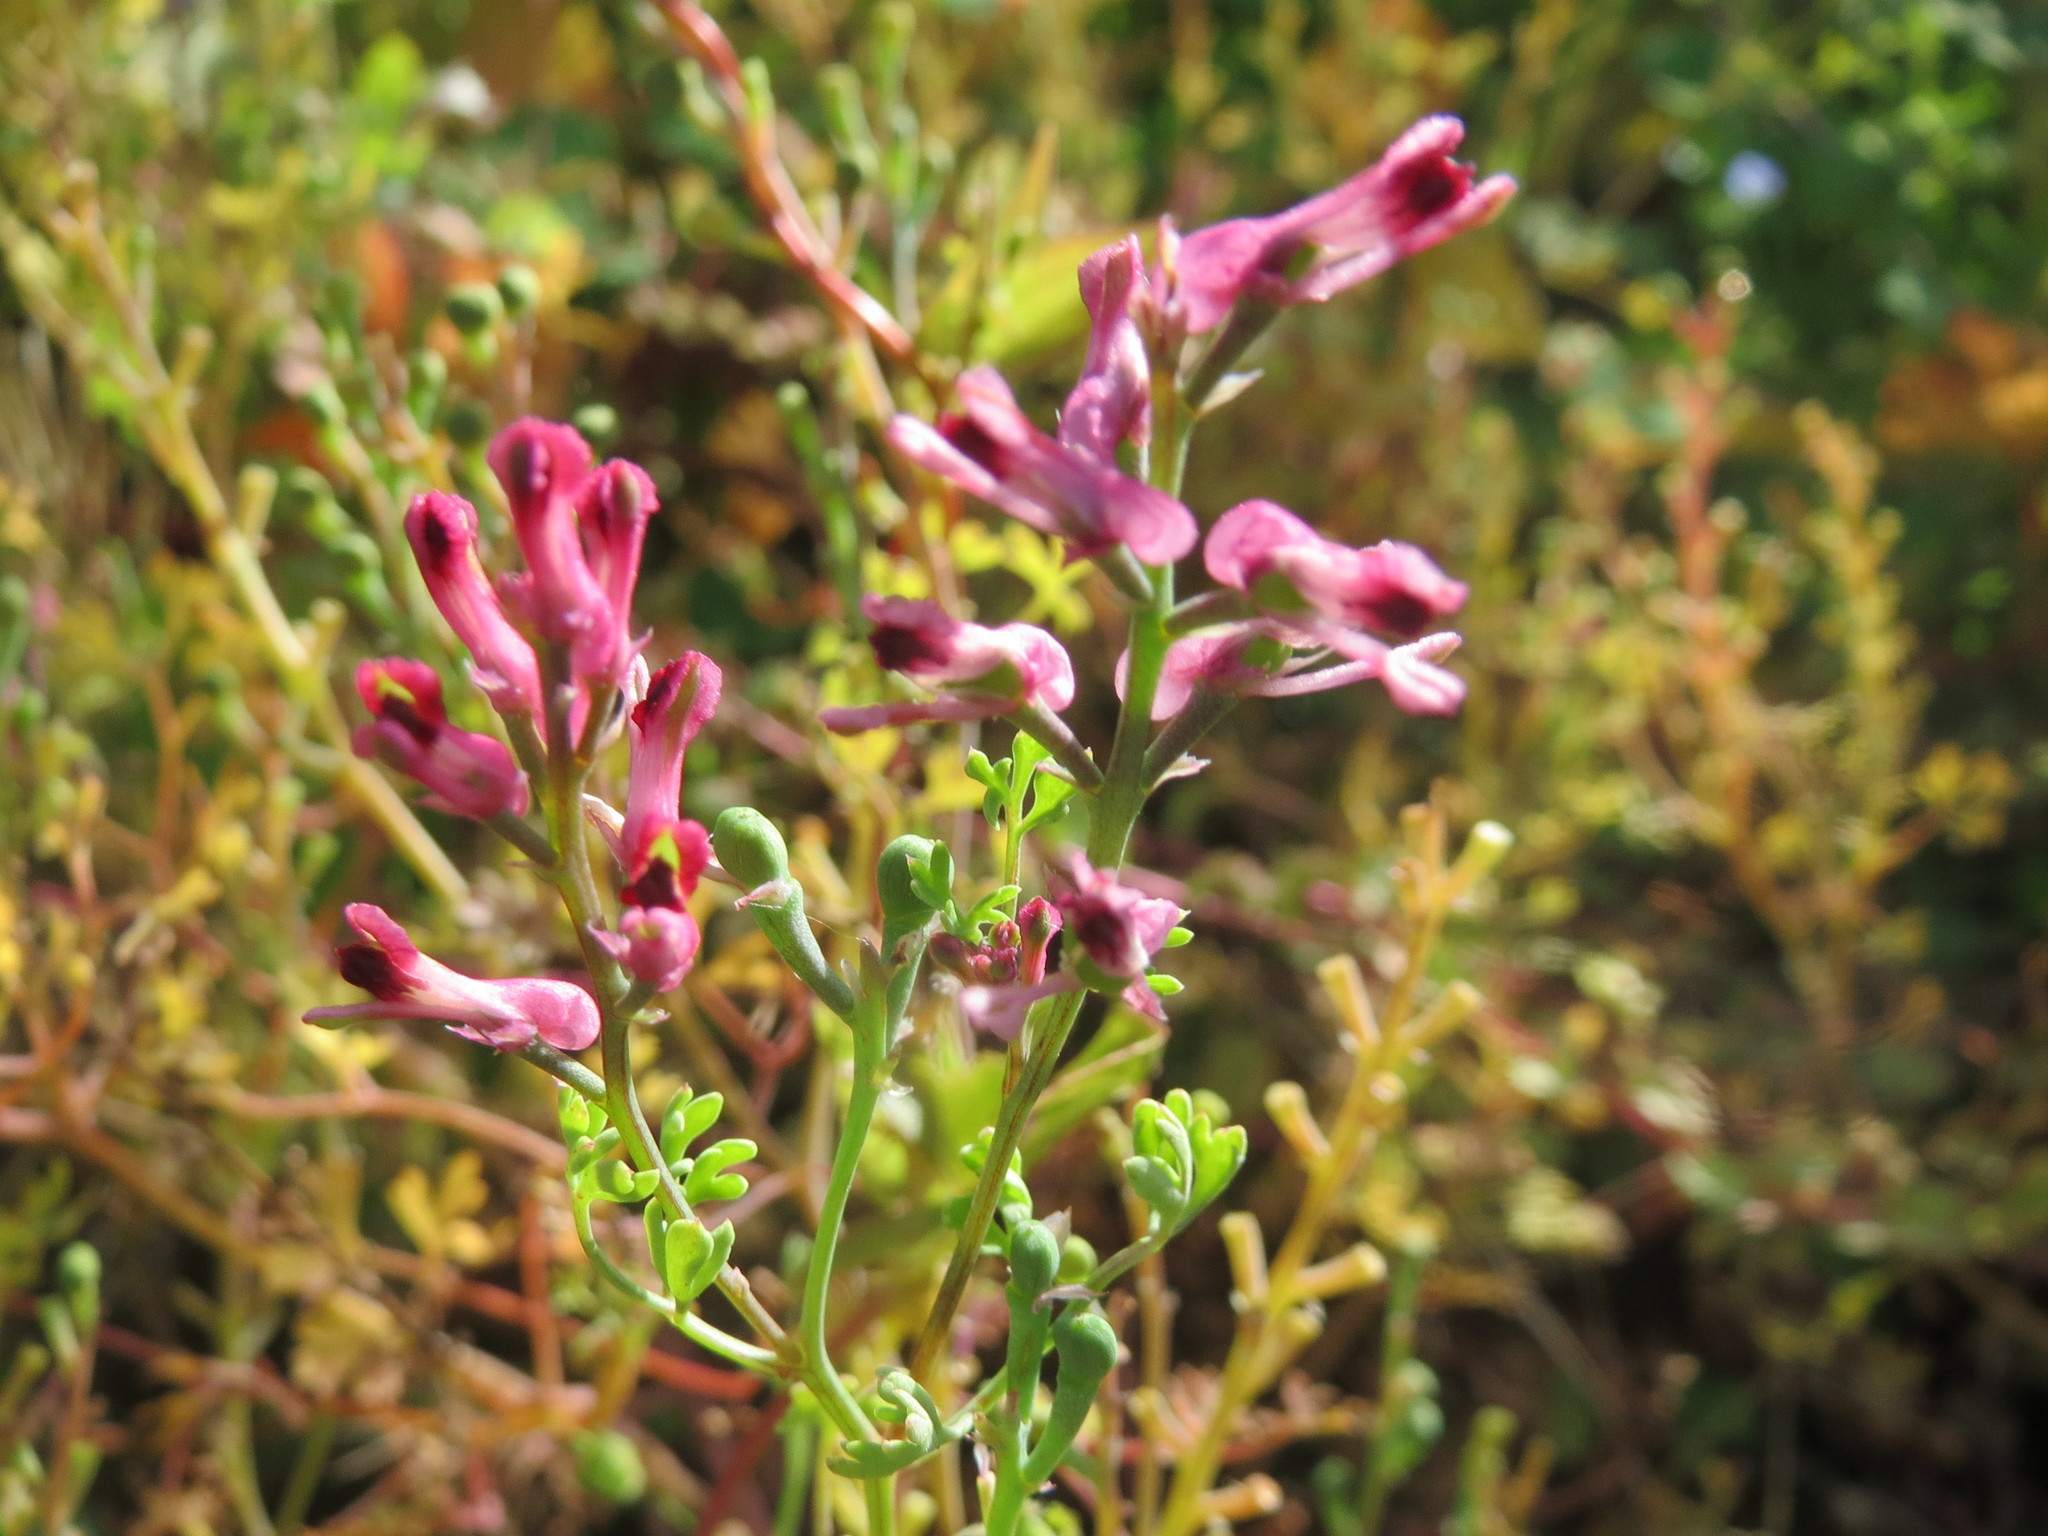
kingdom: Plantae
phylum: Tracheophyta
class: Magnoliopsida
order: Ranunculales
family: Papaveraceae
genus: Fumaria
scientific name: Fumaria officinalis
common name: Common fumitory
